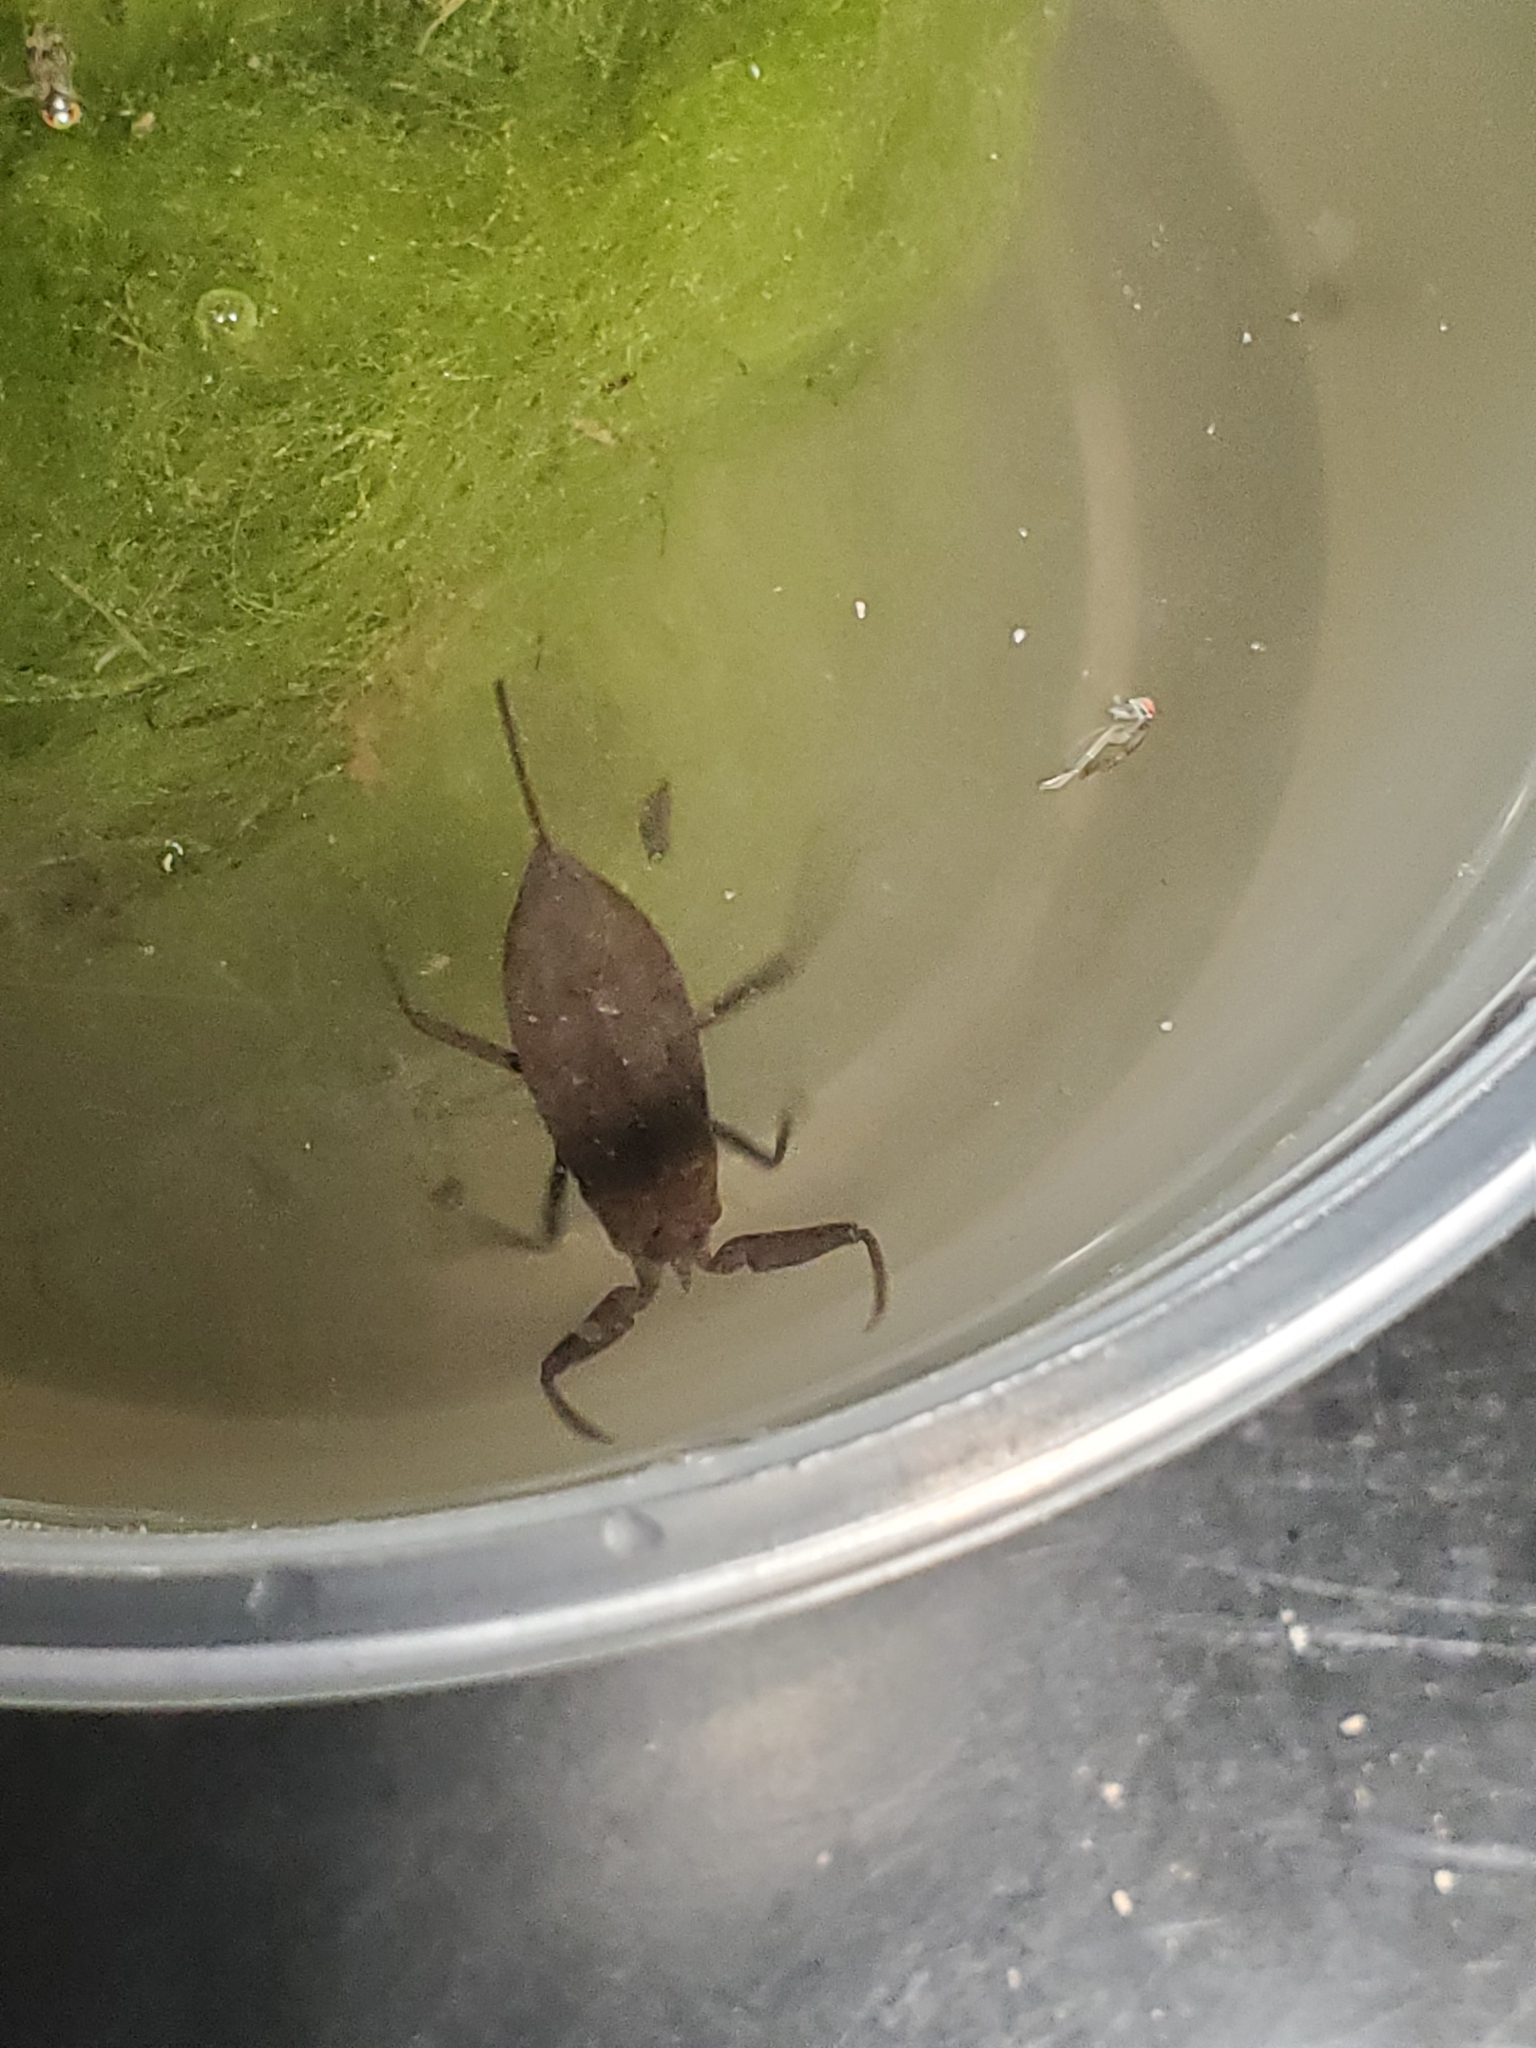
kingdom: Animalia
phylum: Arthropoda
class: Insecta
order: Hemiptera
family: Nepidae
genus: Nepa
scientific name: Nepa apiculata
